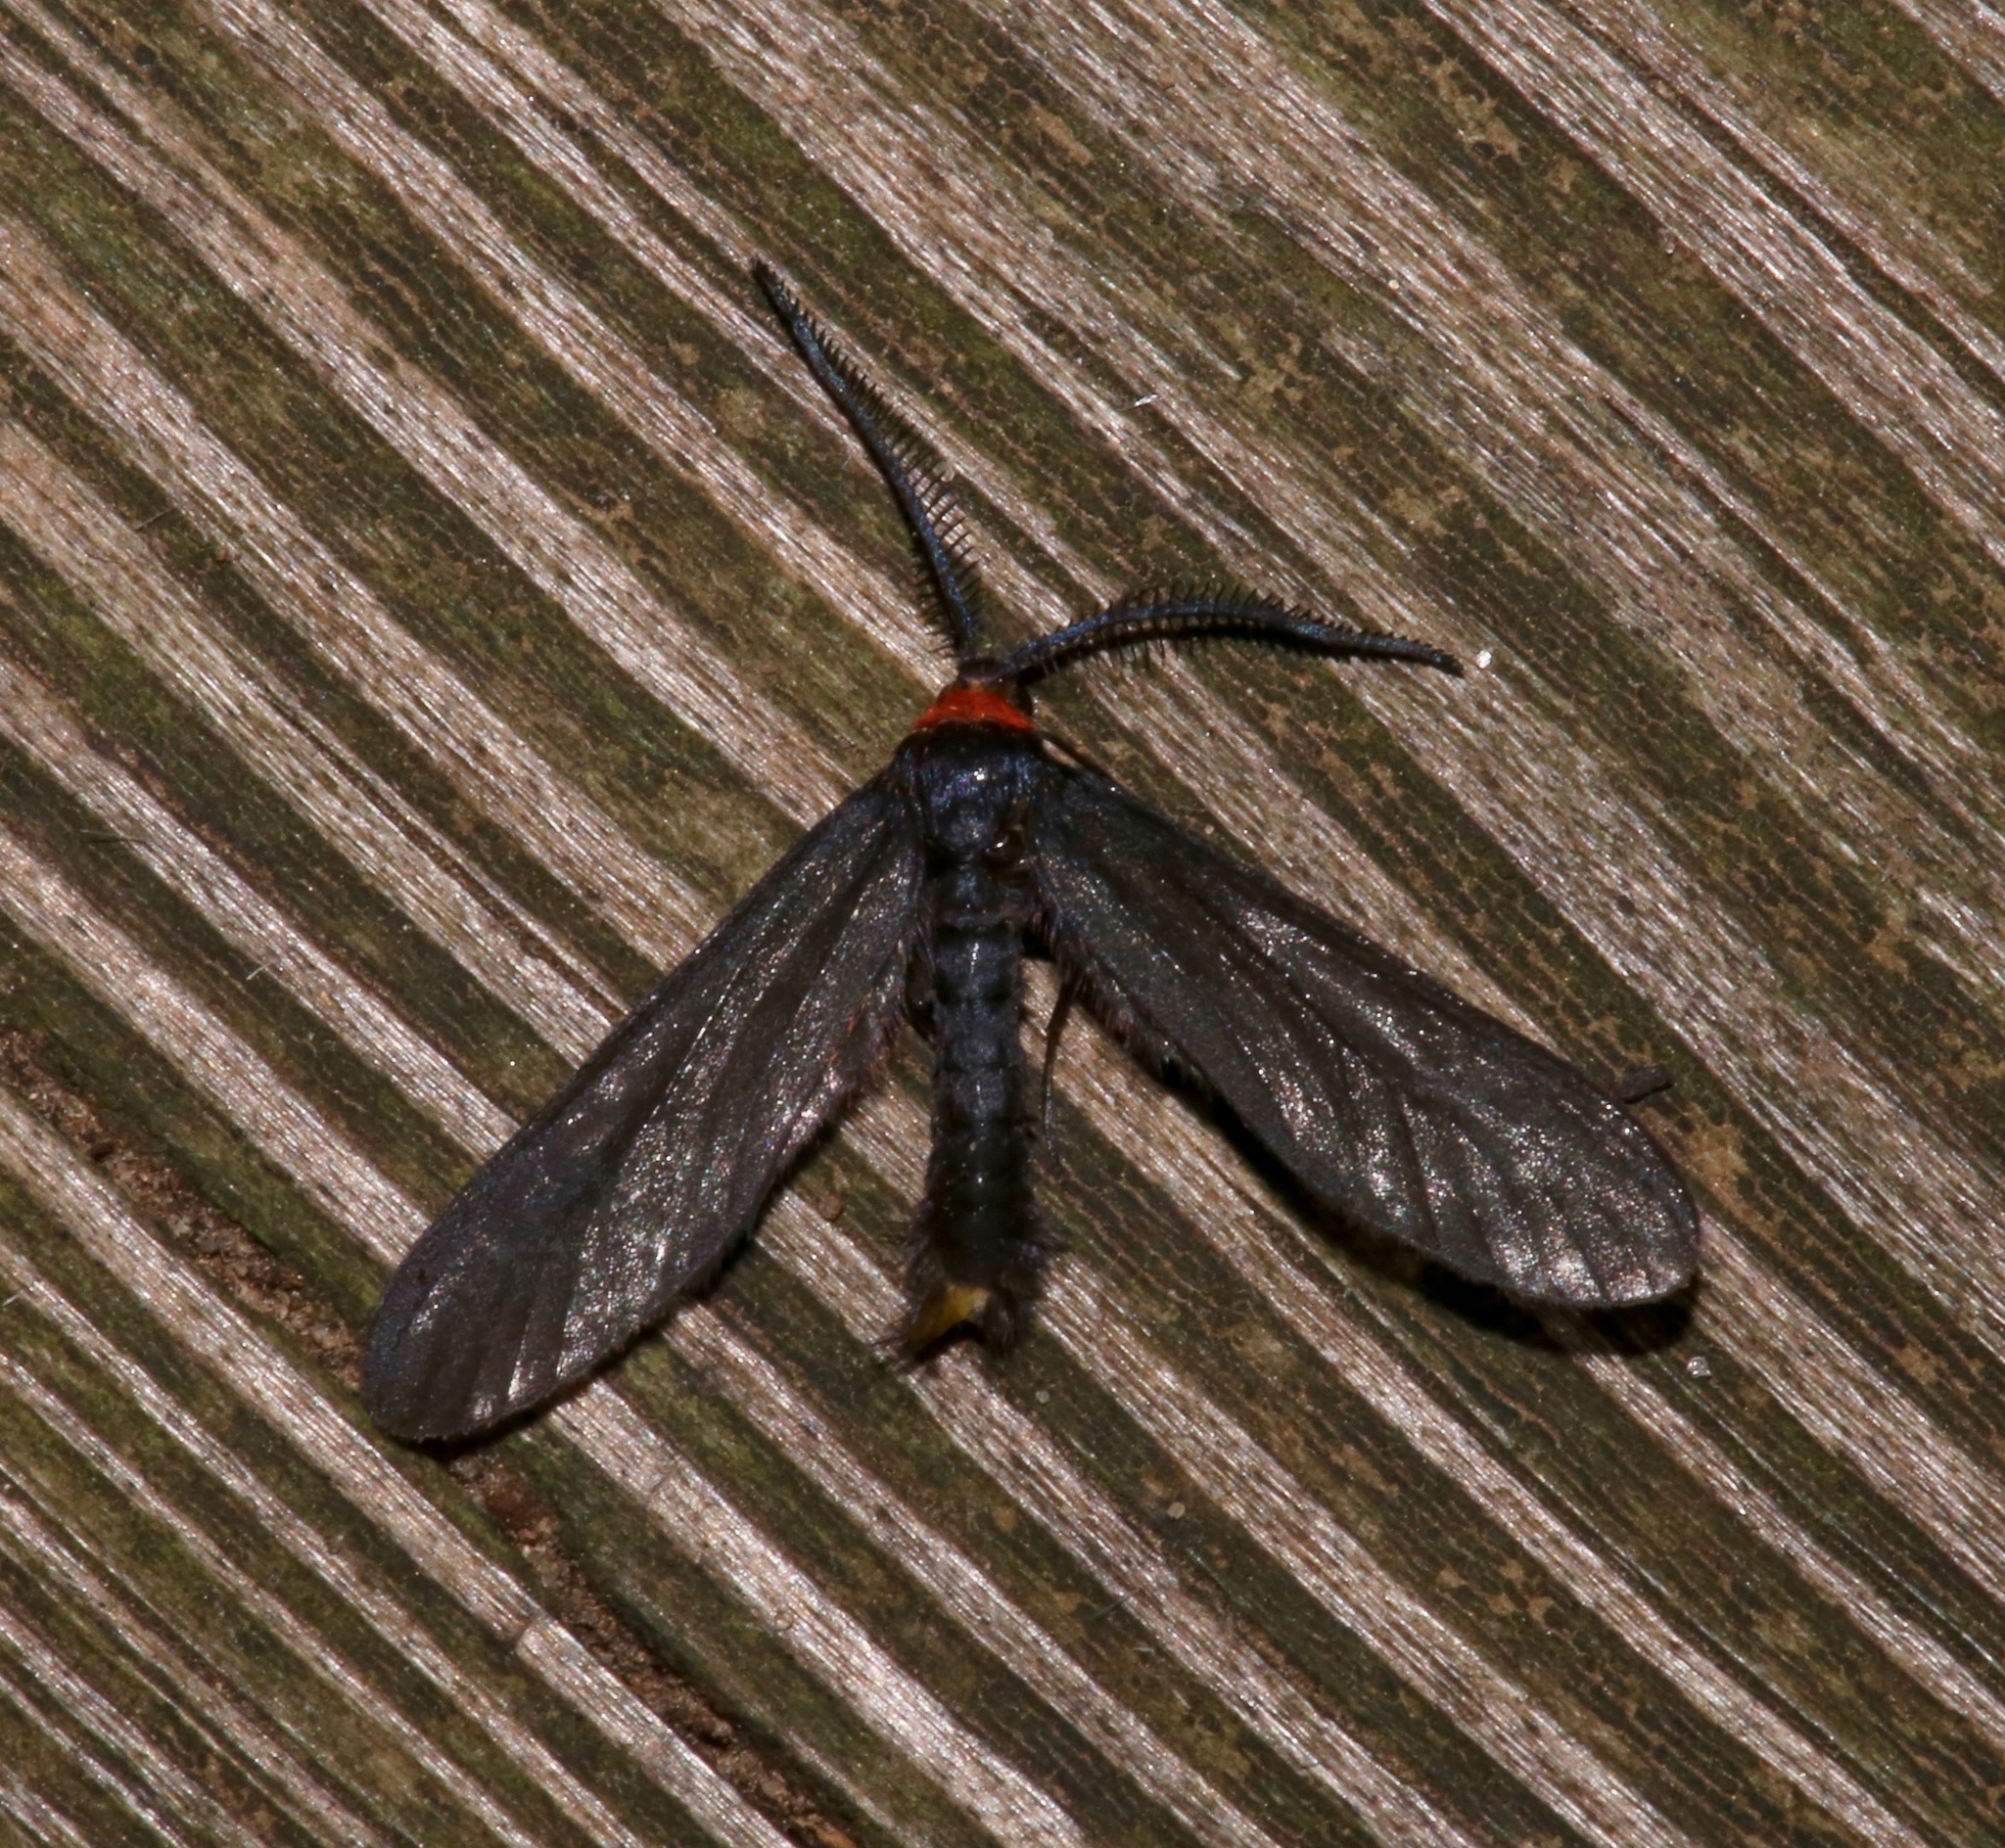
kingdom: Animalia
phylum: Arthropoda
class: Insecta
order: Lepidoptera
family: Zygaenidae
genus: Harrisina
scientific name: Harrisina americana
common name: Grapeleaf skeletonizer moth
